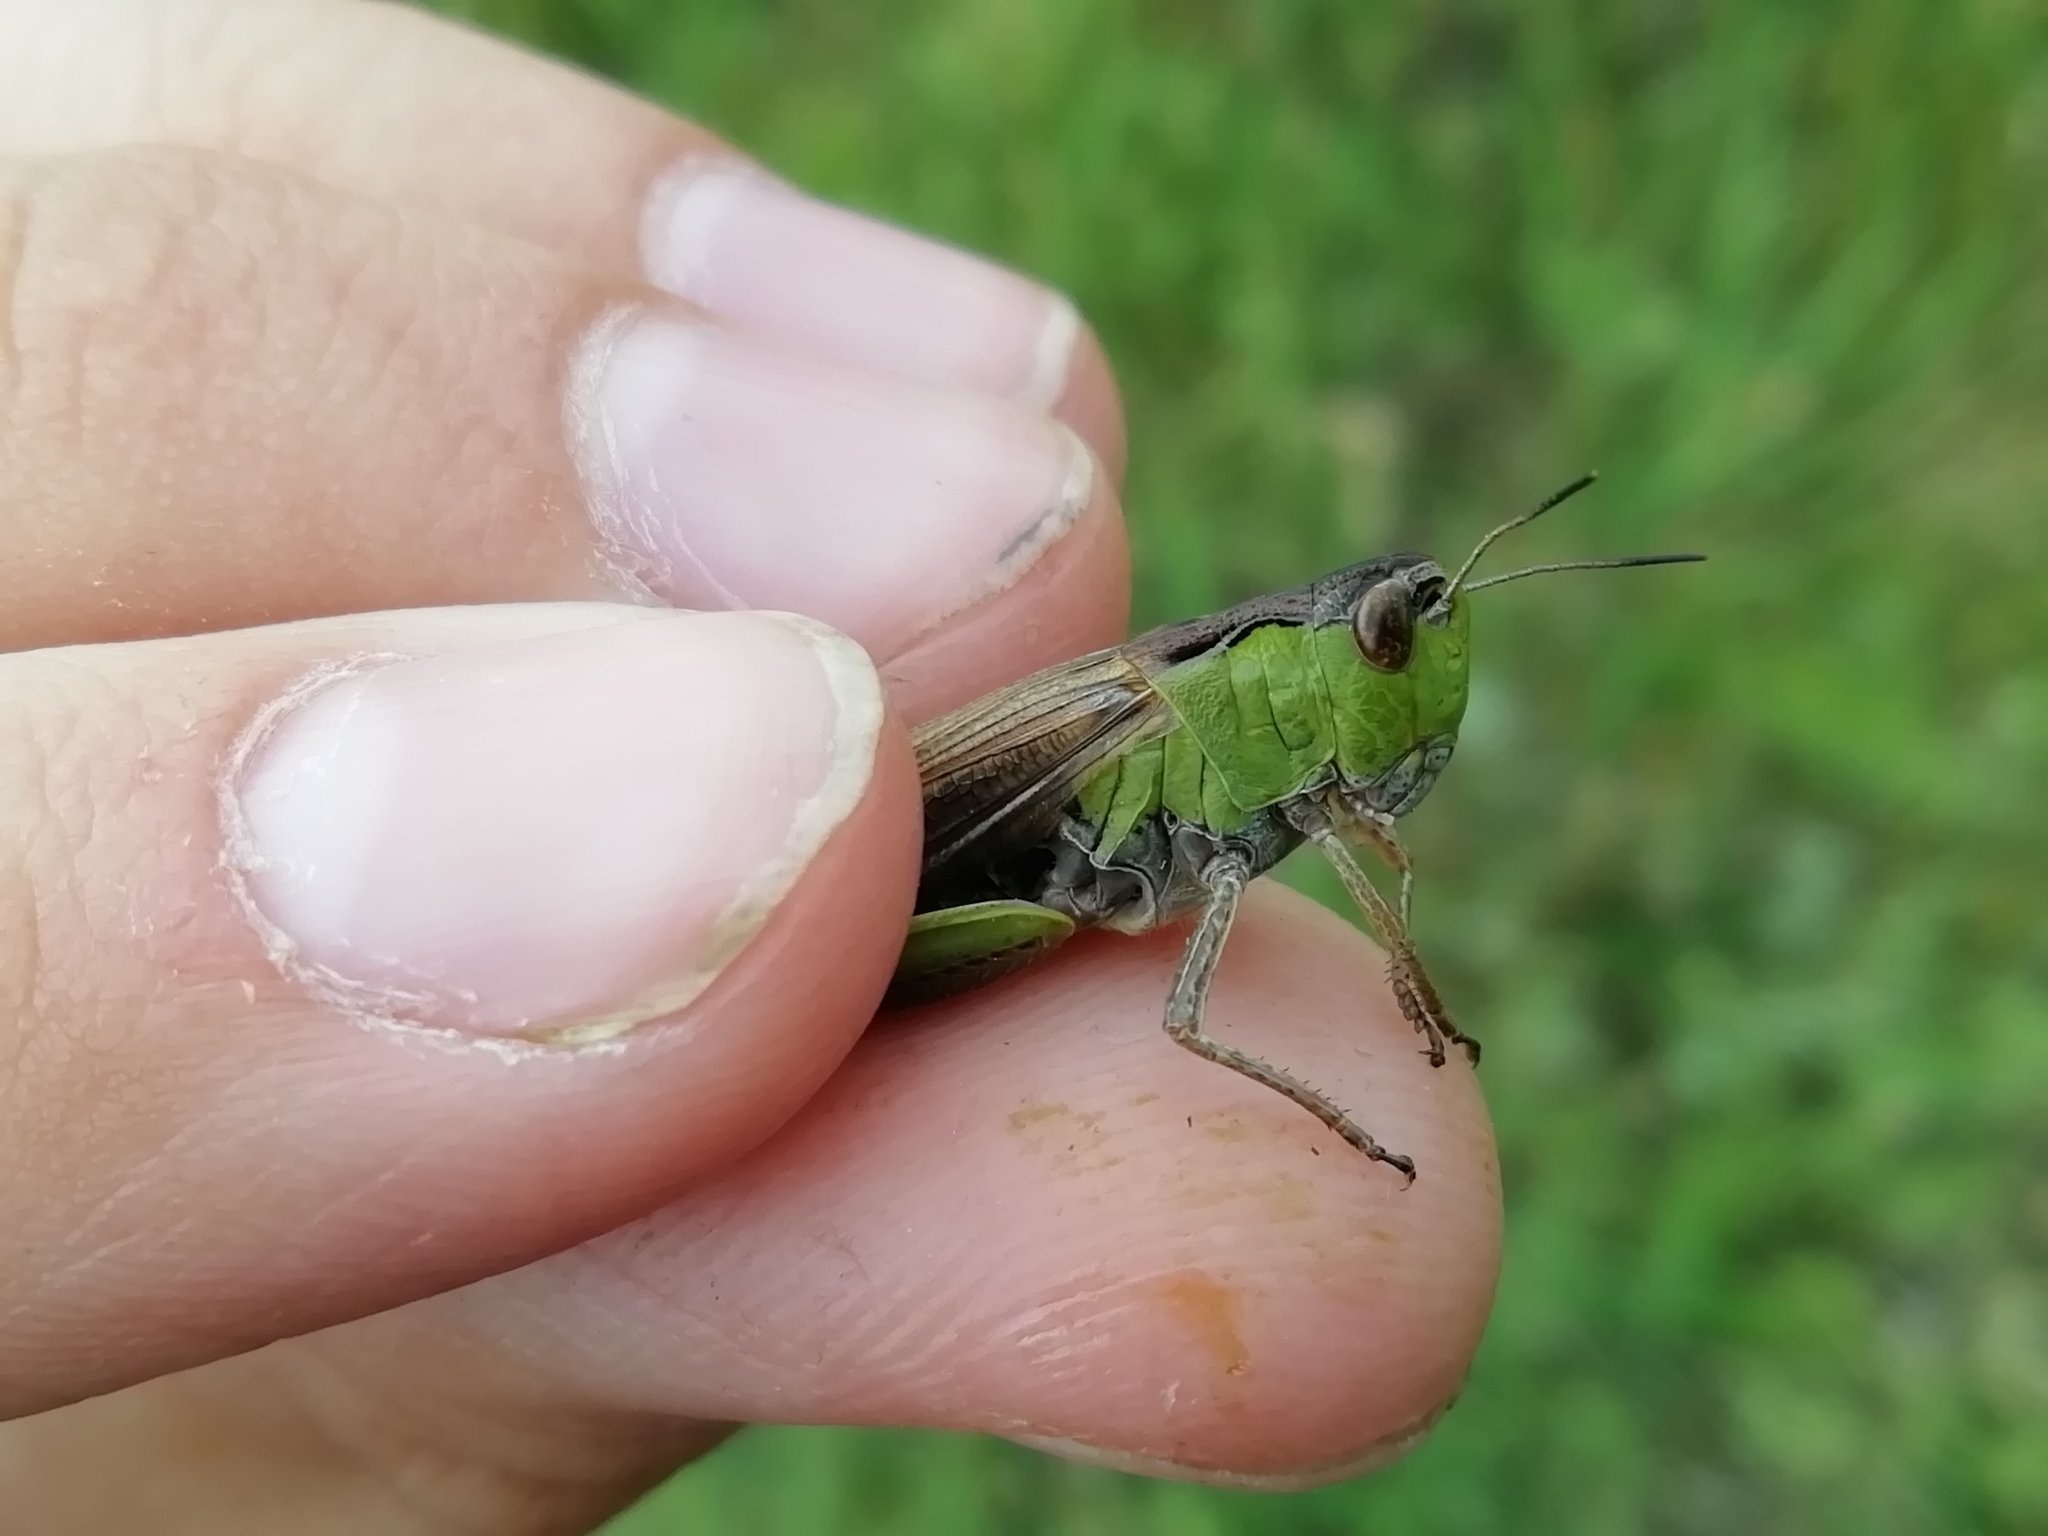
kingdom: Animalia
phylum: Arthropoda
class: Insecta
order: Orthoptera
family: Acrididae
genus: Stauroderus
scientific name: Stauroderus scalaris
